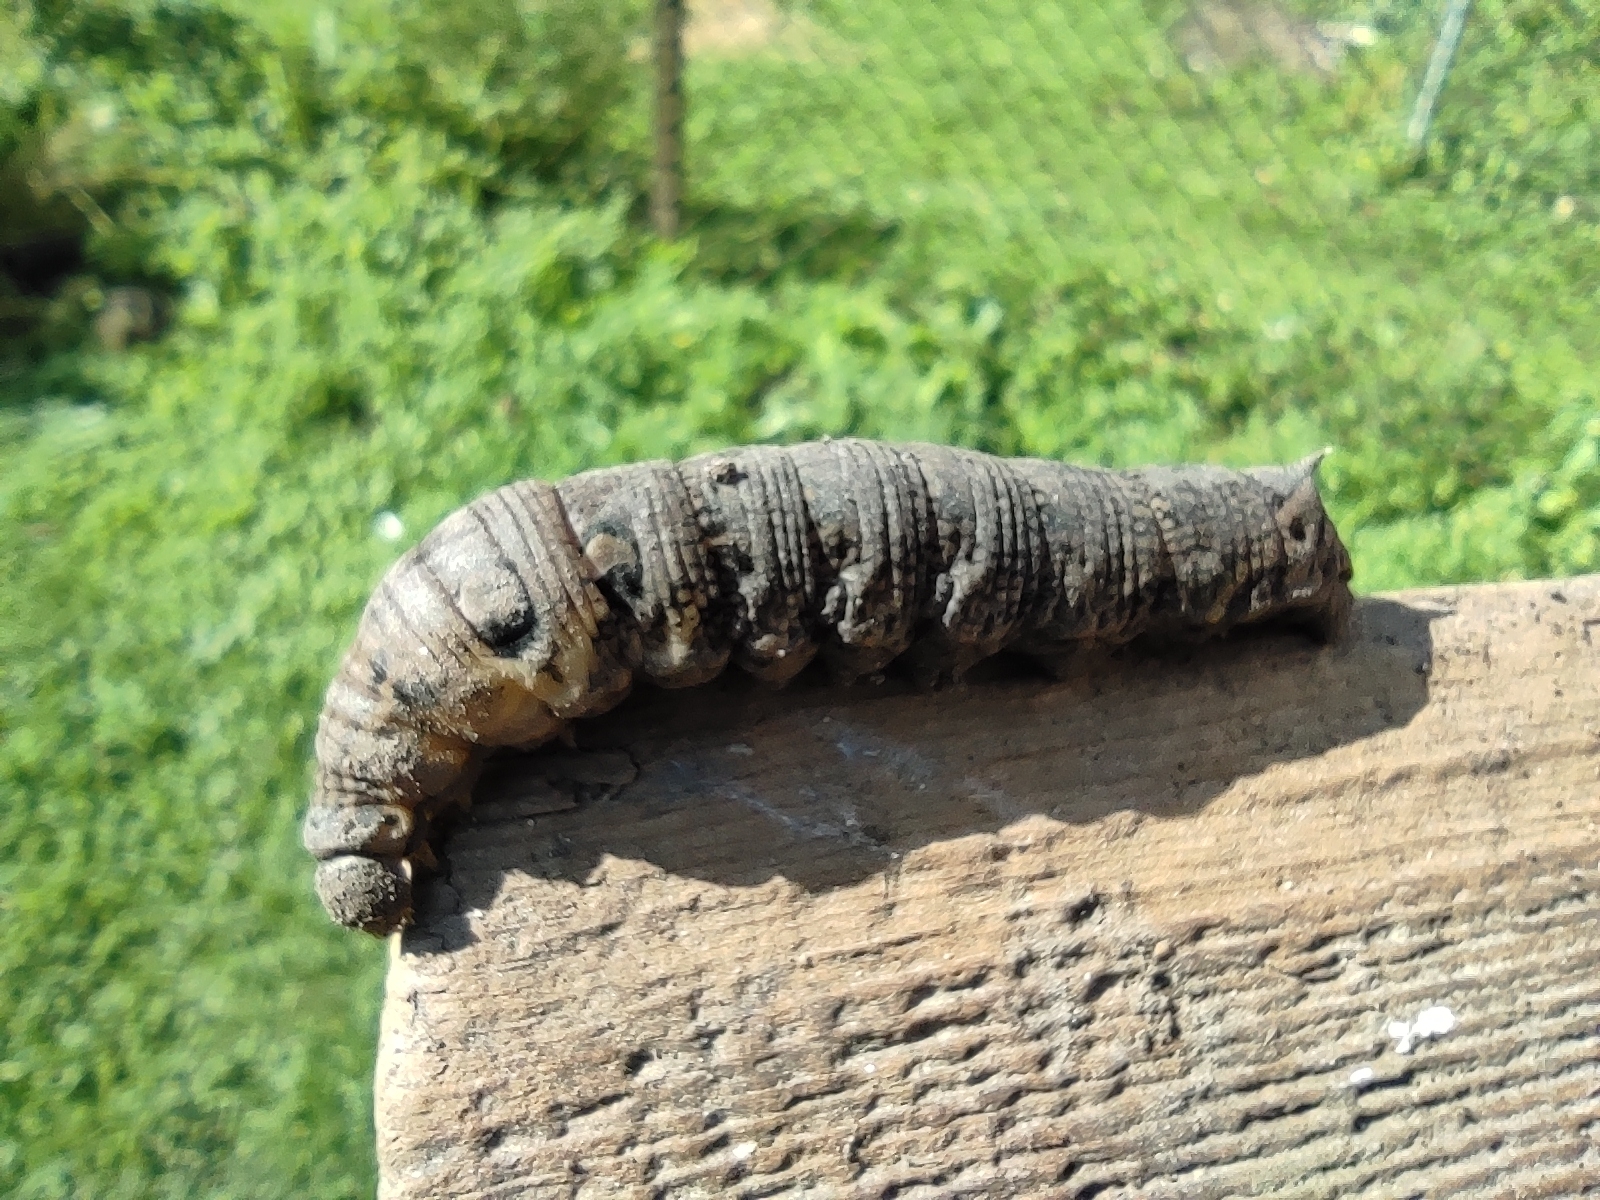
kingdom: Animalia
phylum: Arthropoda
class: Insecta
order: Lepidoptera
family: Sphingidae
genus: Deilephila
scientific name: Deilephila elpenor
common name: Elephant hawk-moth
